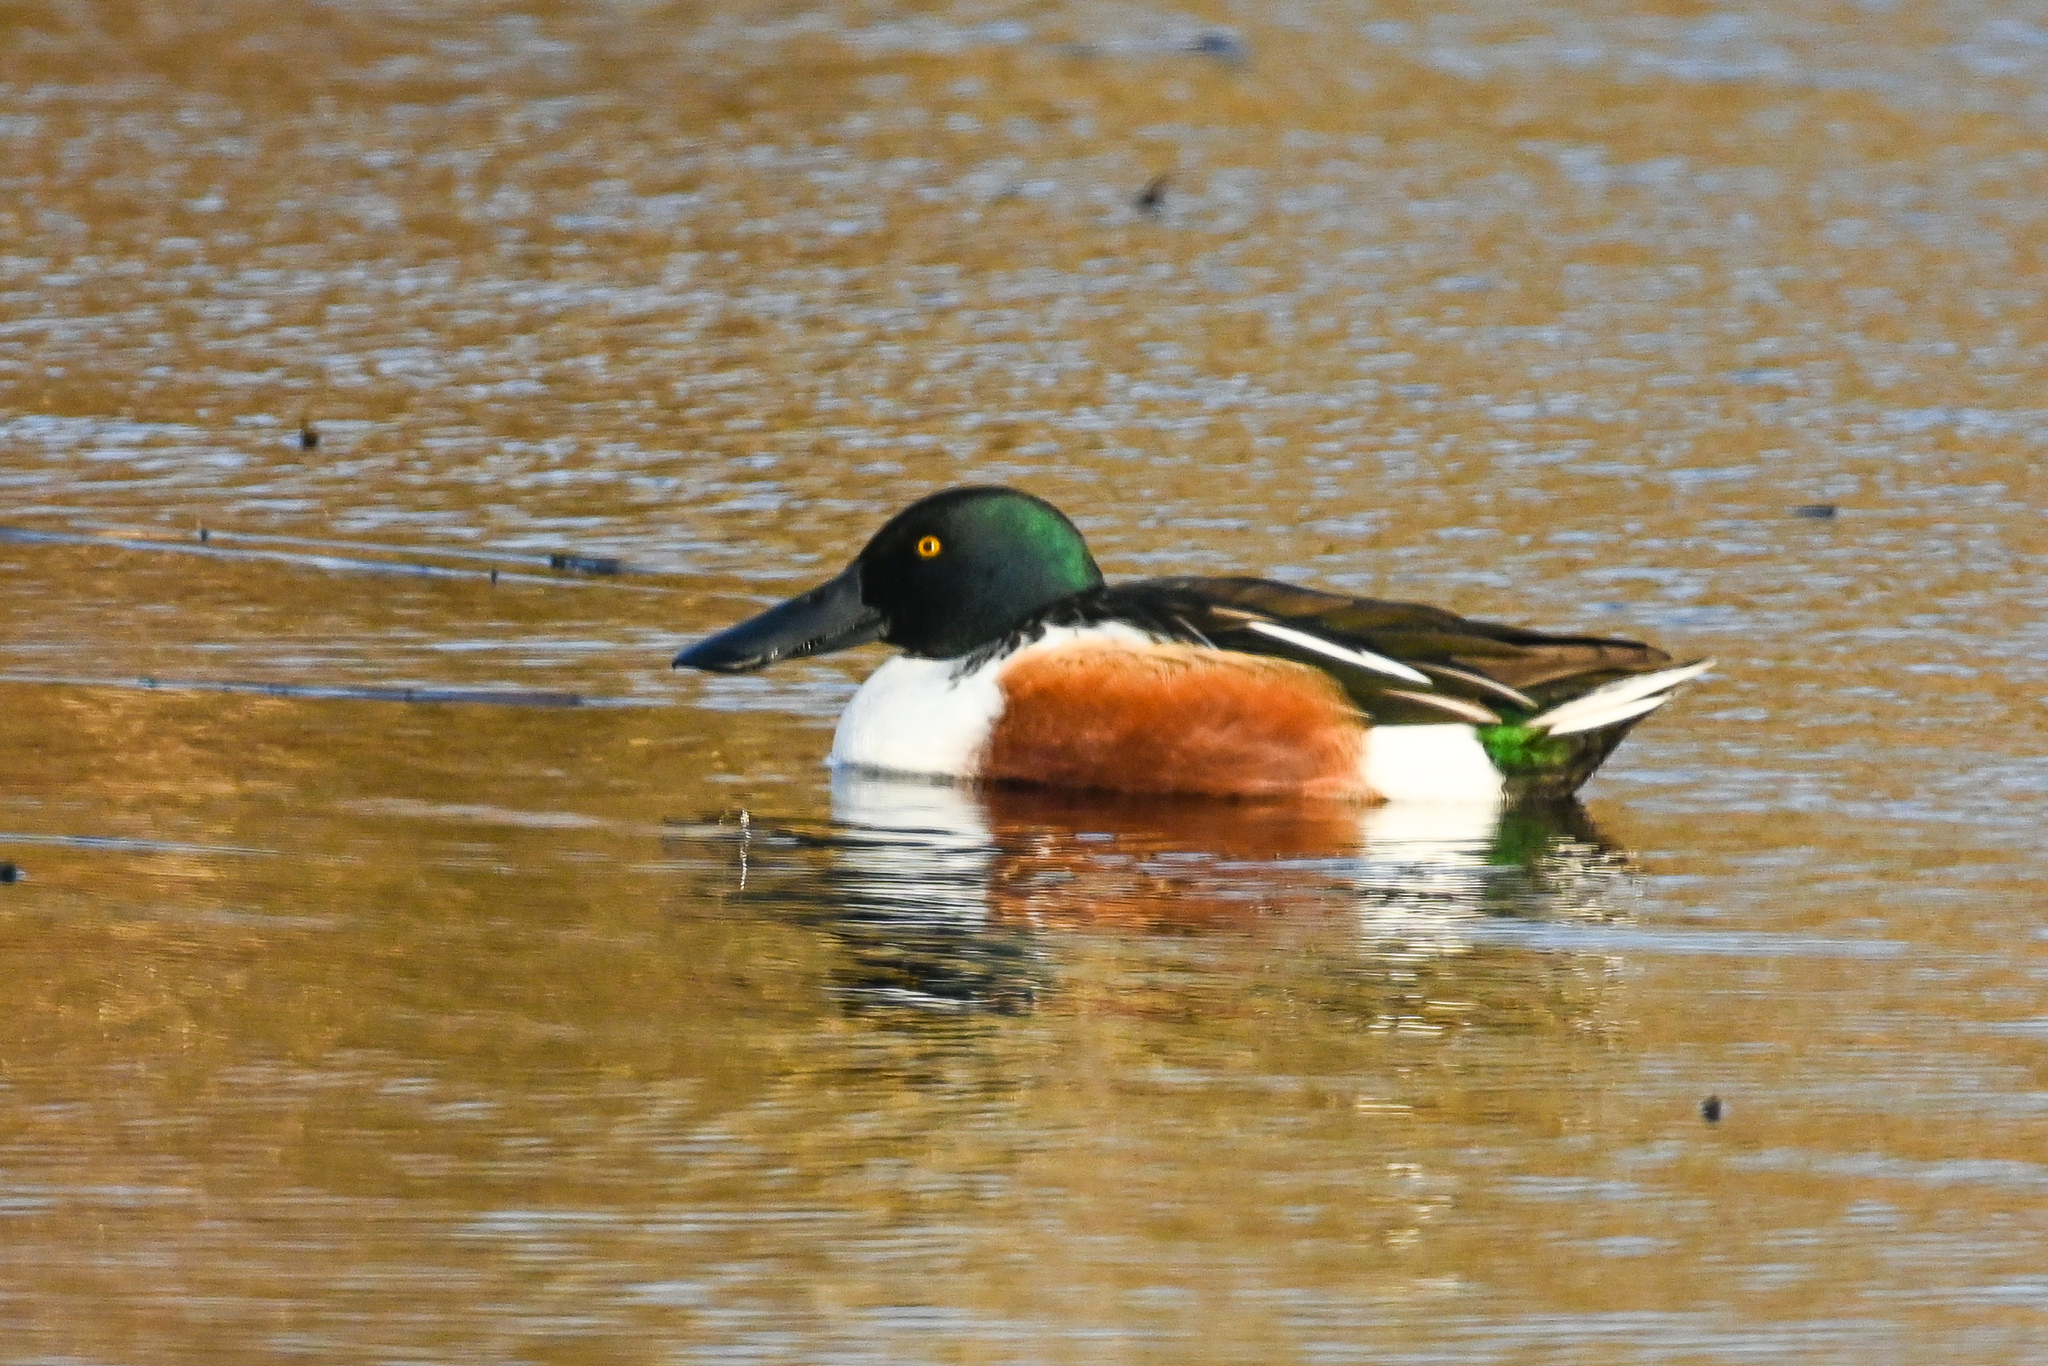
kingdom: Animalia
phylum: Chordata
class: Aves
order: Anseriformes
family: Anatidae
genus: Spatula
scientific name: Spatula clypeata
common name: Northern shoveler
